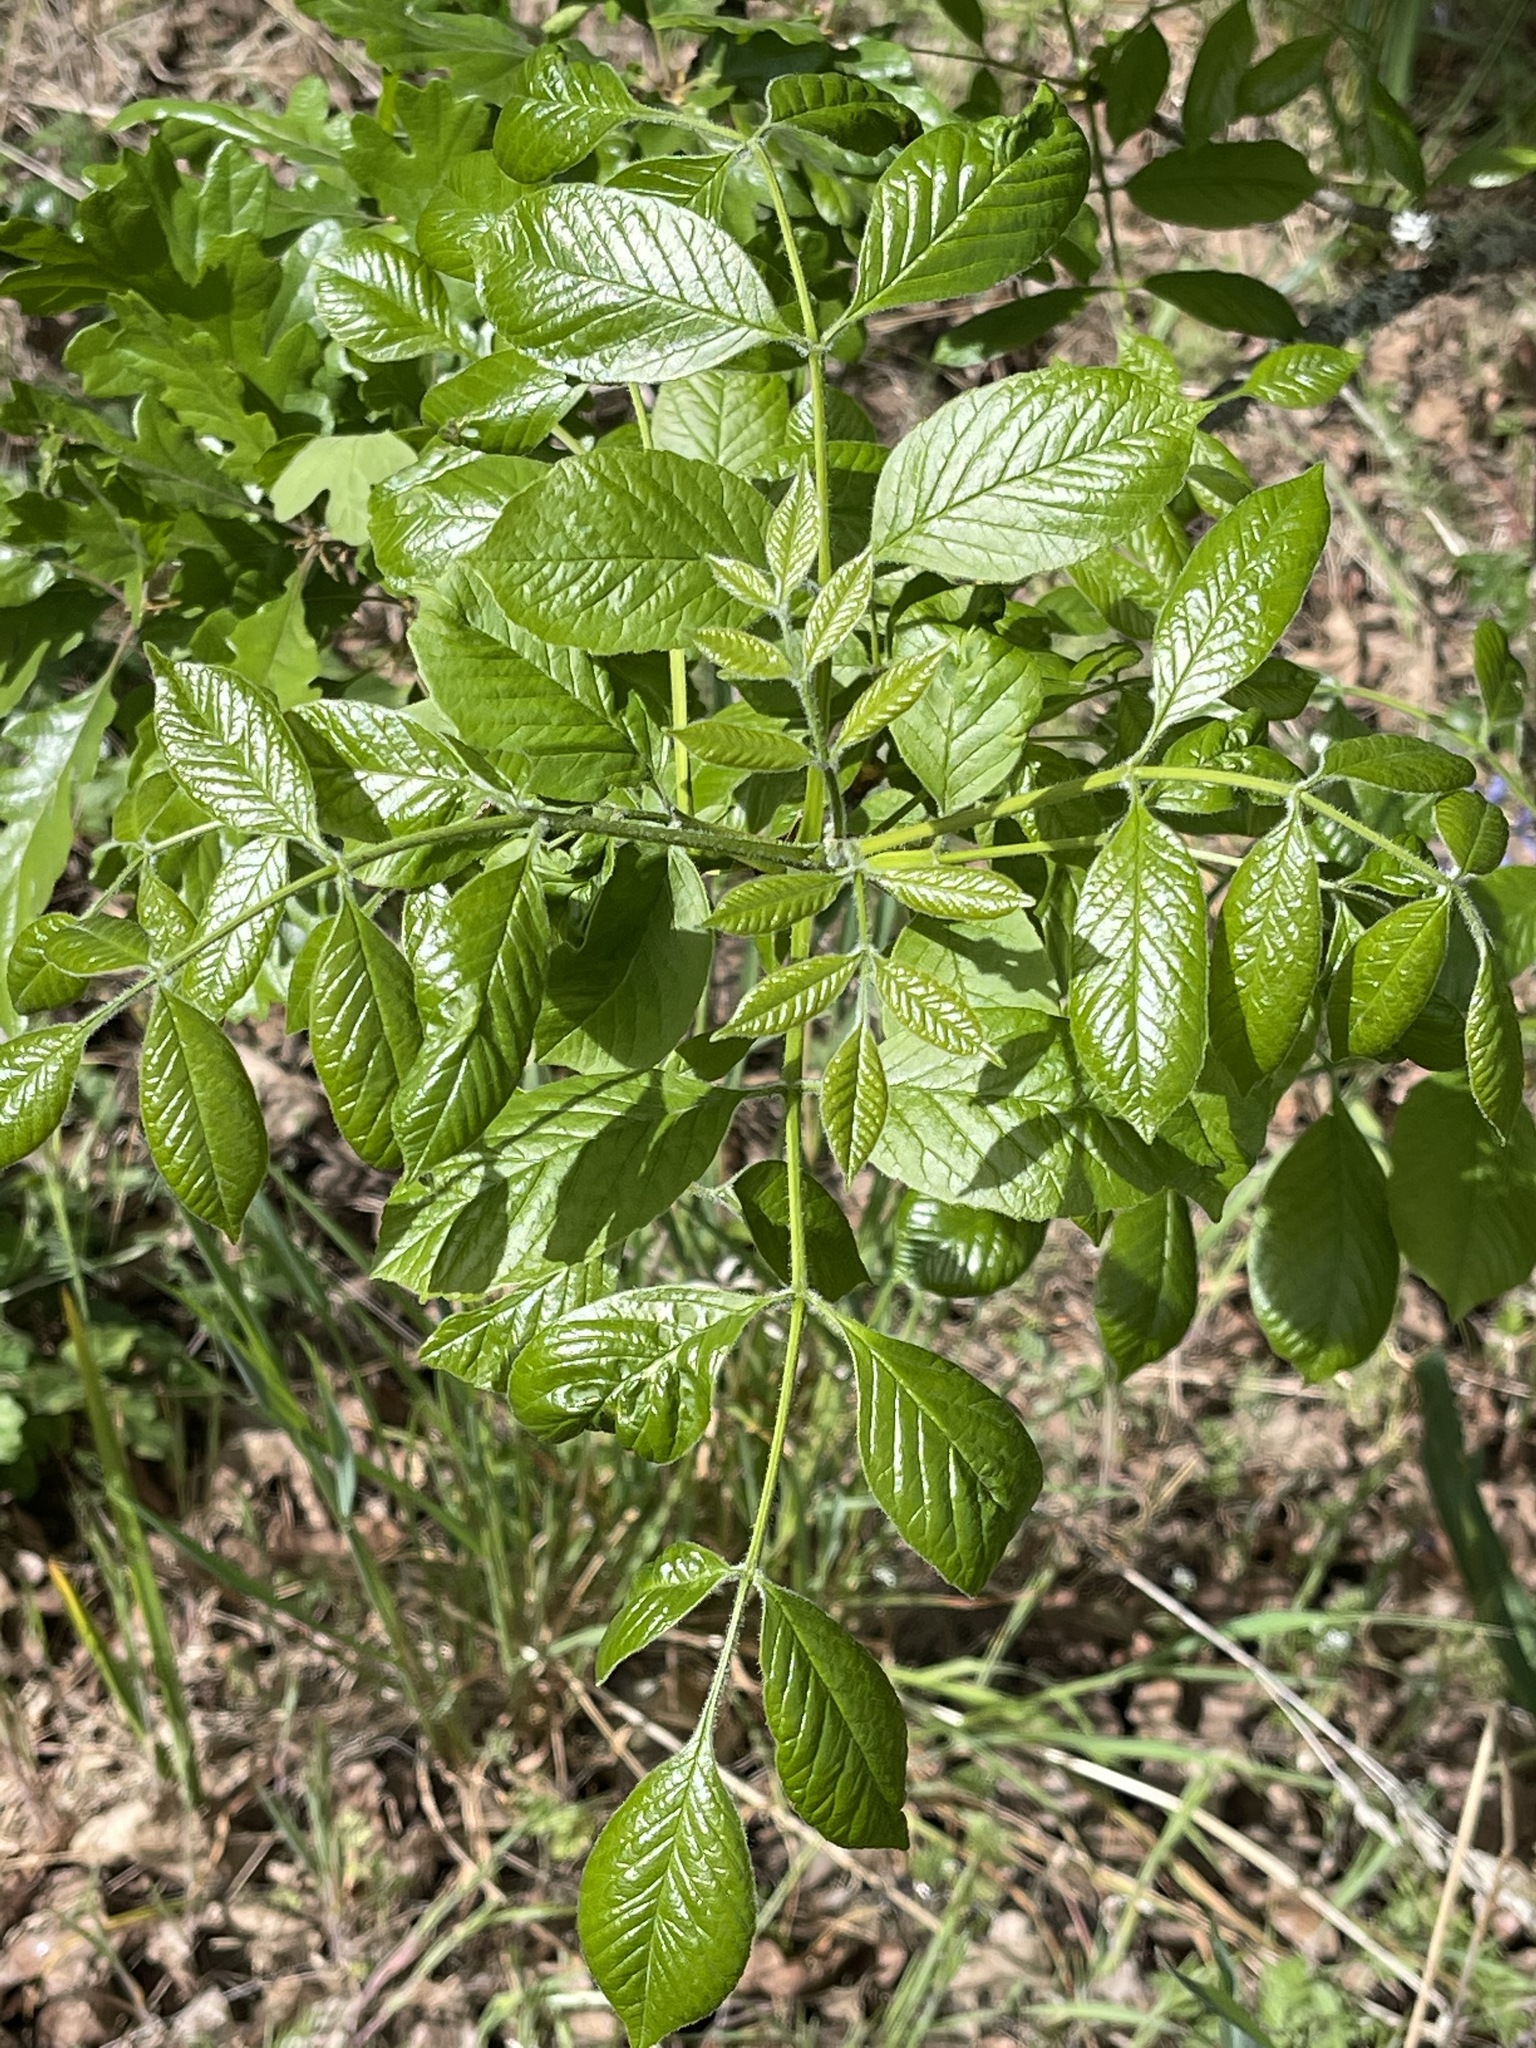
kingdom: Plantae
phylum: Tracheophyta
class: Magnoliopsida
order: Lamiales
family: Oleaceae
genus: Fraxinus
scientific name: Fraxinus latifolia
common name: Oregon ash
